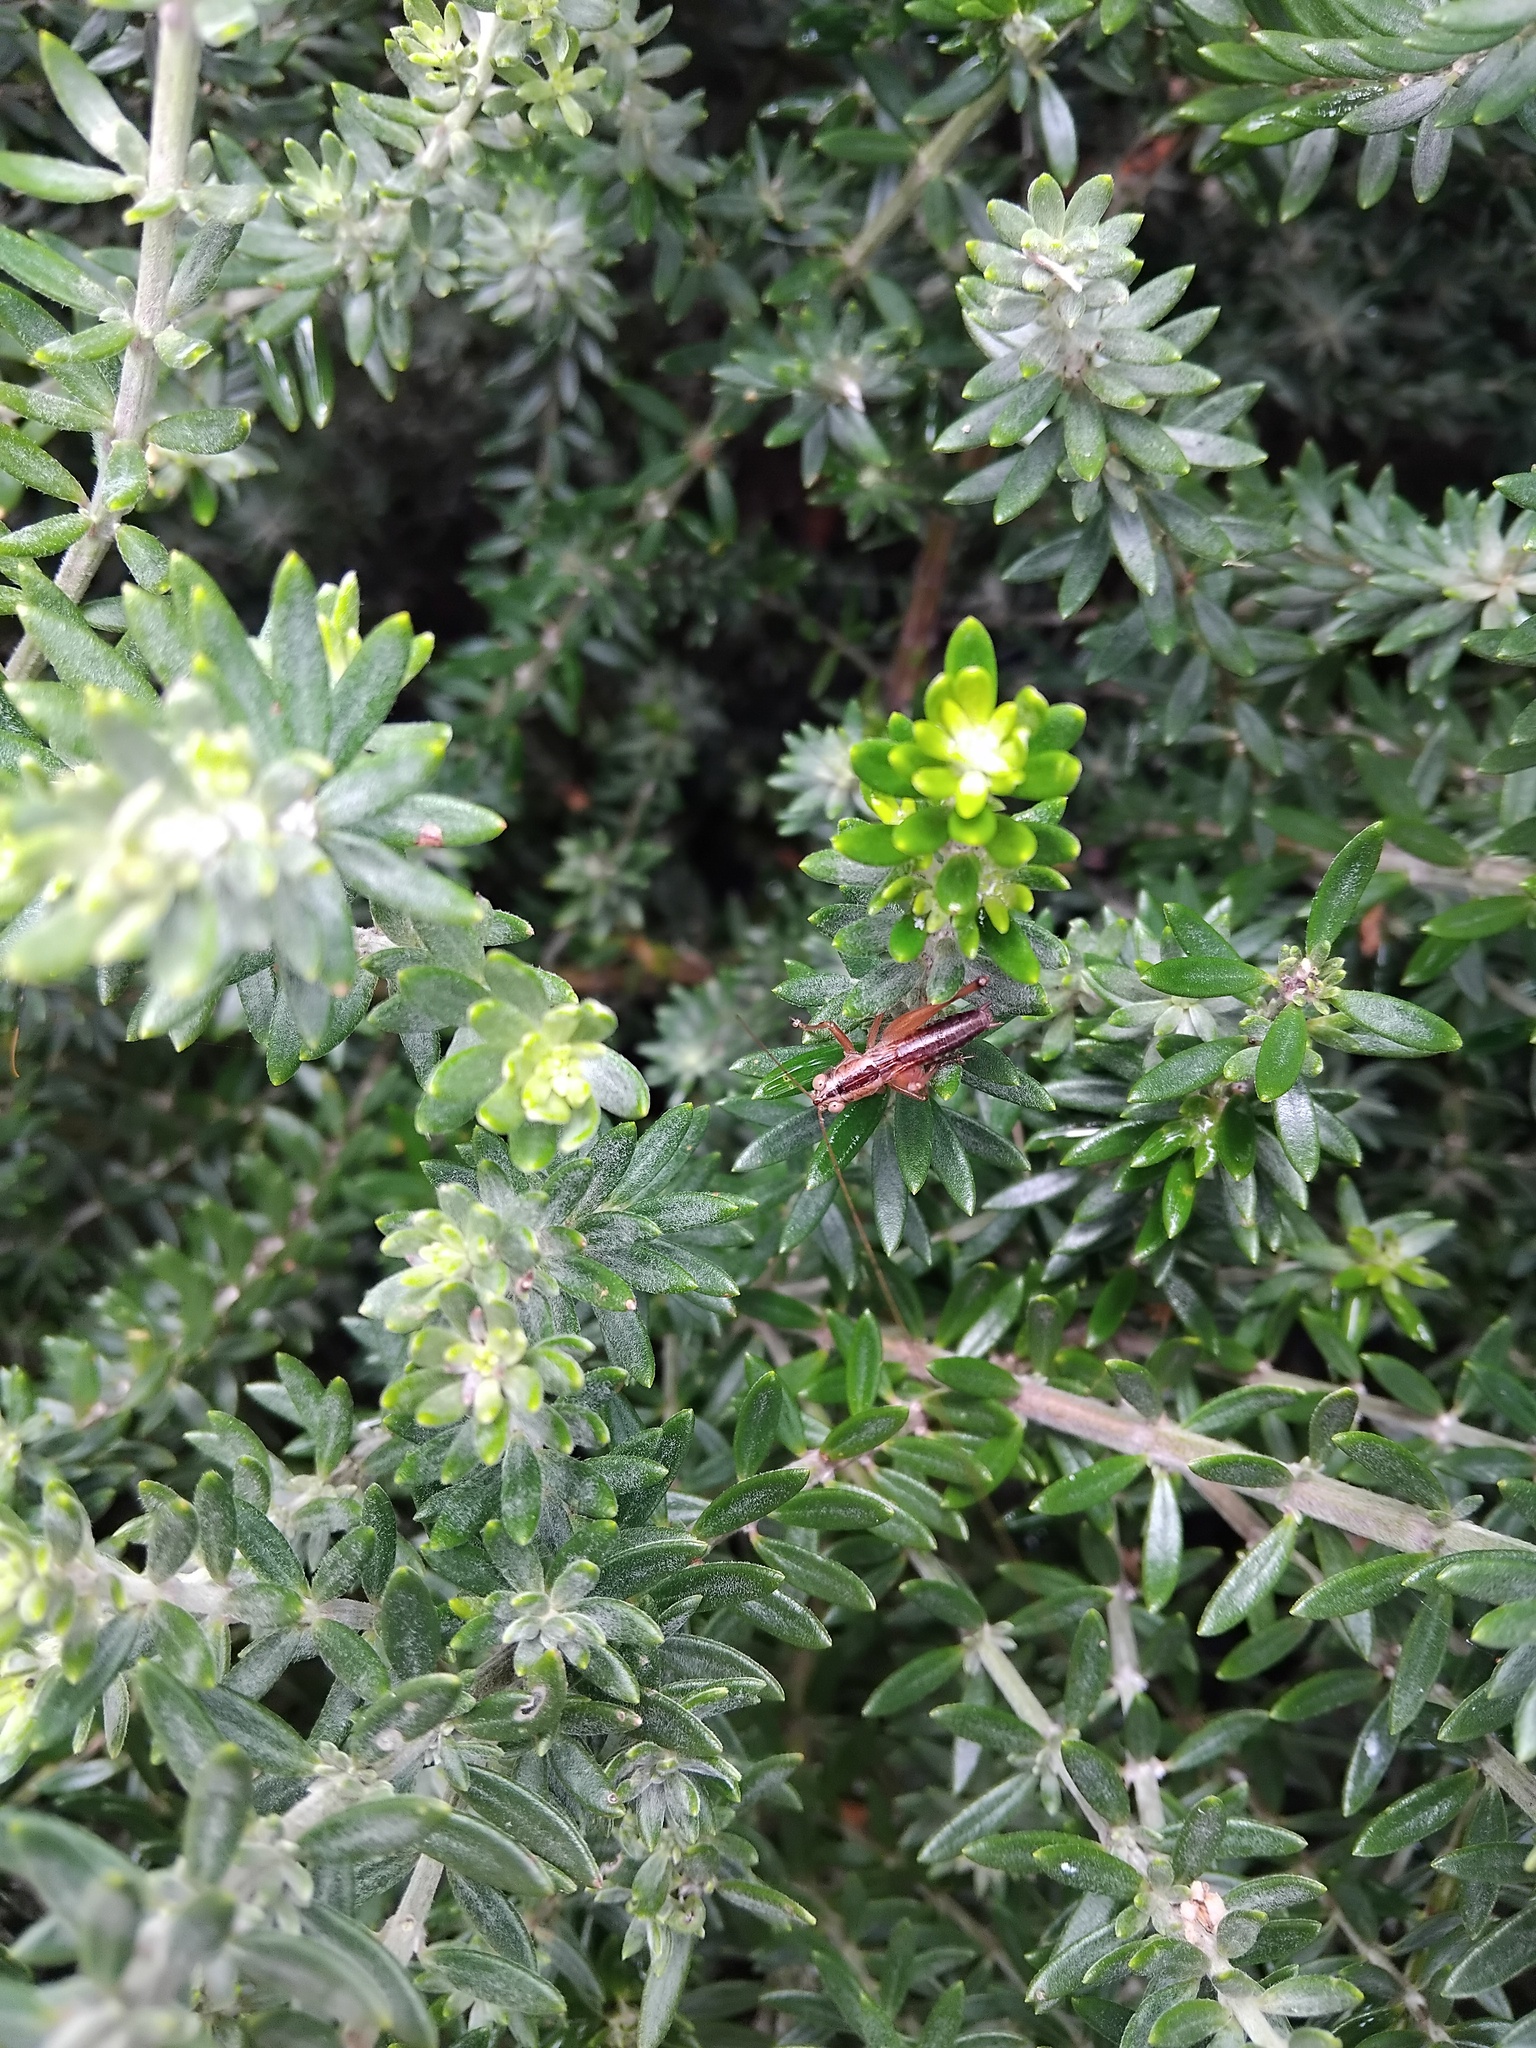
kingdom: Animalia
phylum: Arthropoda
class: Insecta
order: Orthoptera
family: Tettigoniidae
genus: Conocephalus
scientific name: Conocephalus semivittatus
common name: Blackish meadow katydid
